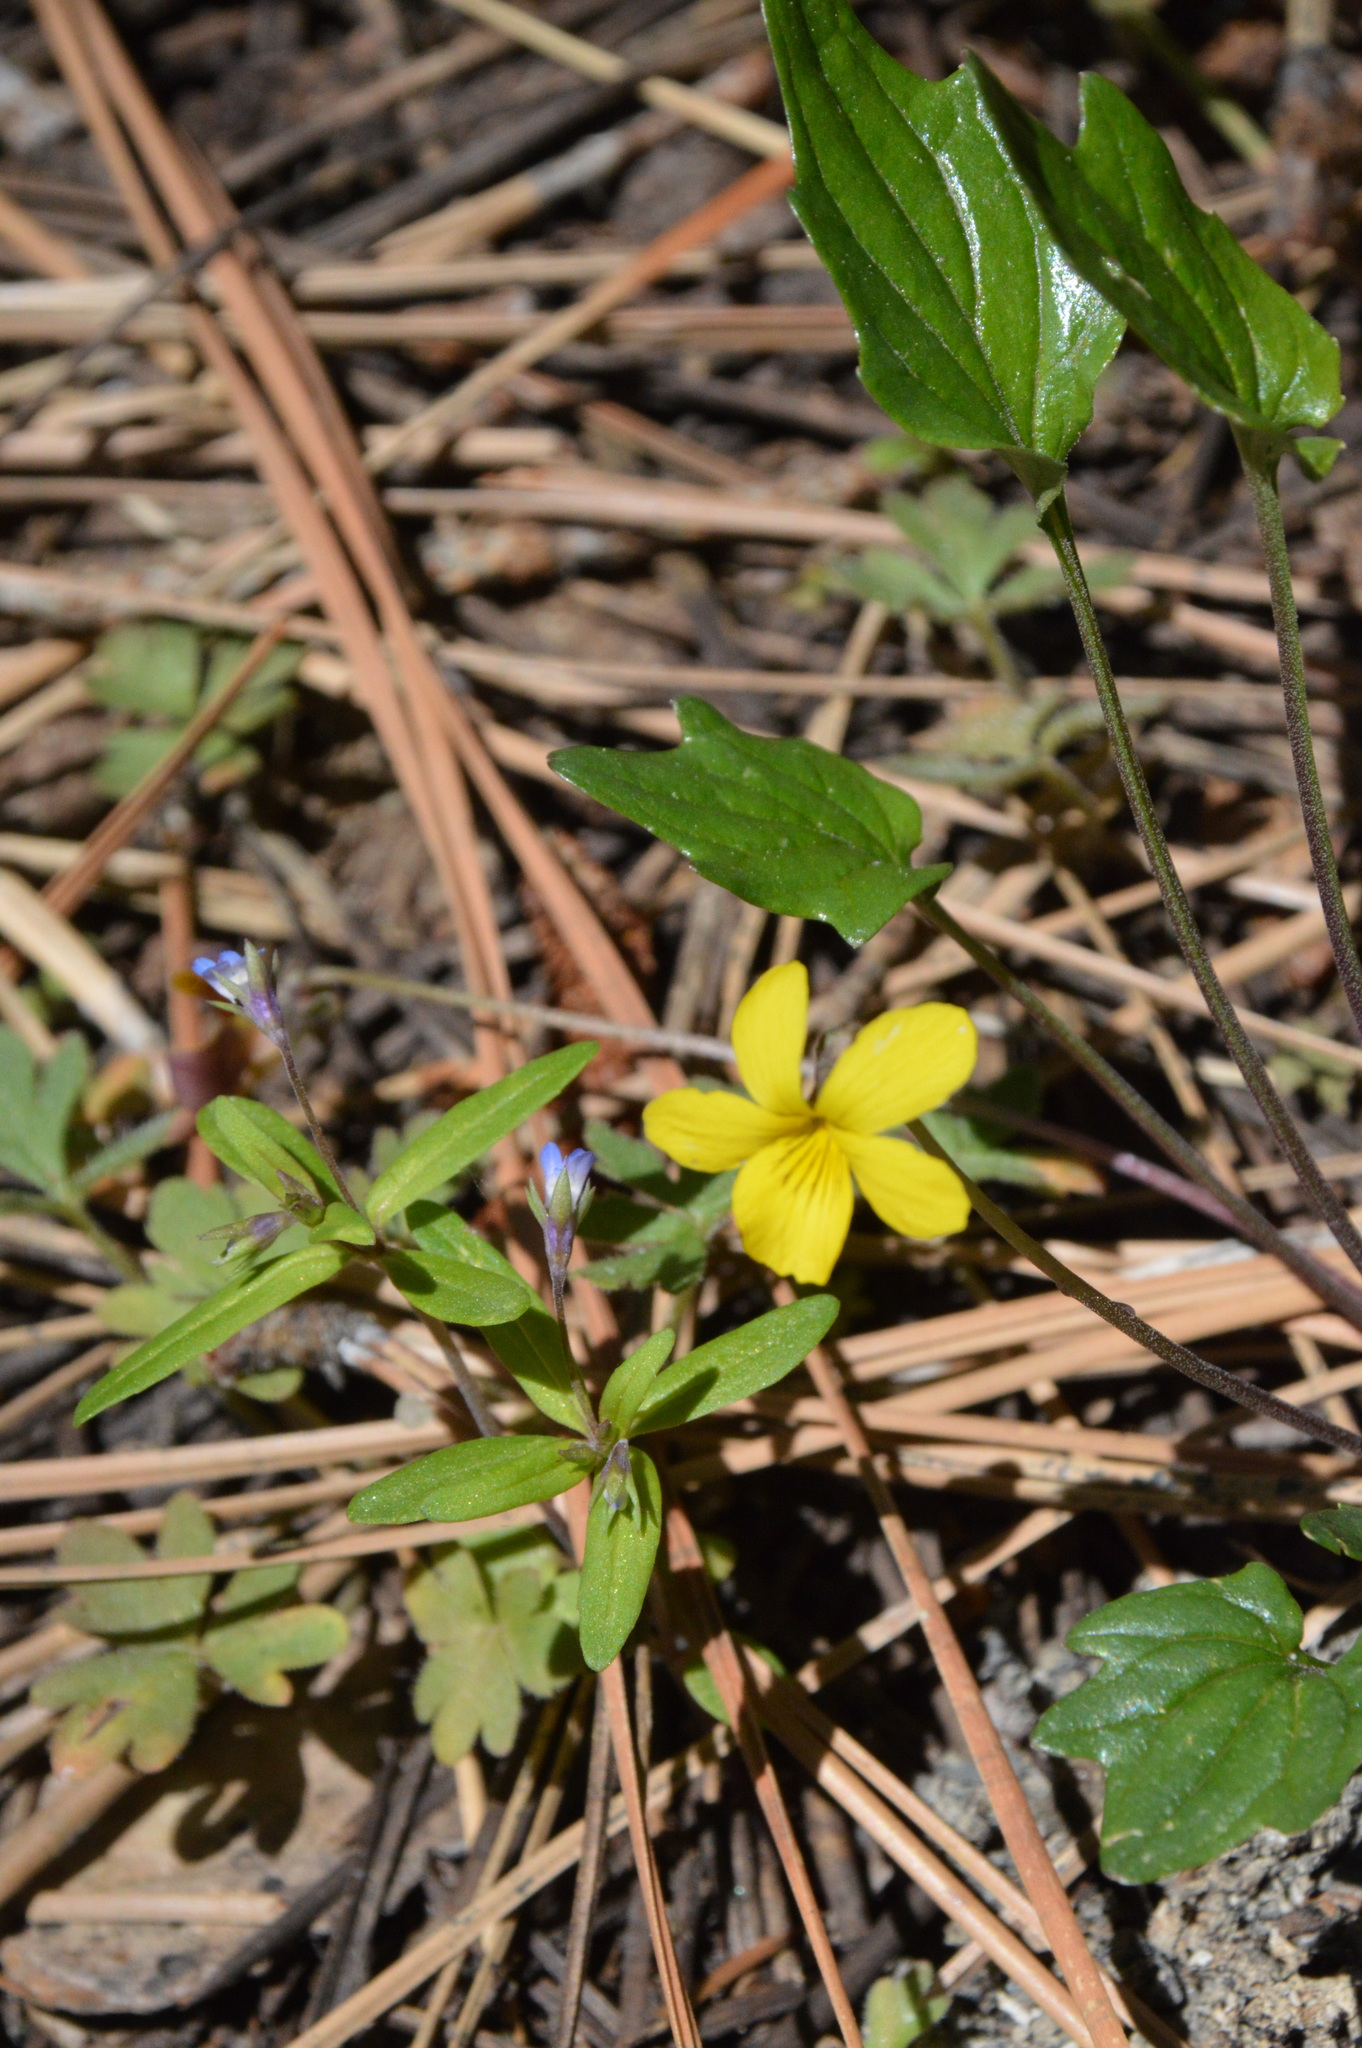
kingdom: Plantae
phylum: Tracheophyta
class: Magnoliopsida
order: Malpighiales
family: Violaceae
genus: Viola
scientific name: Viola purpurea
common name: Pine violet
